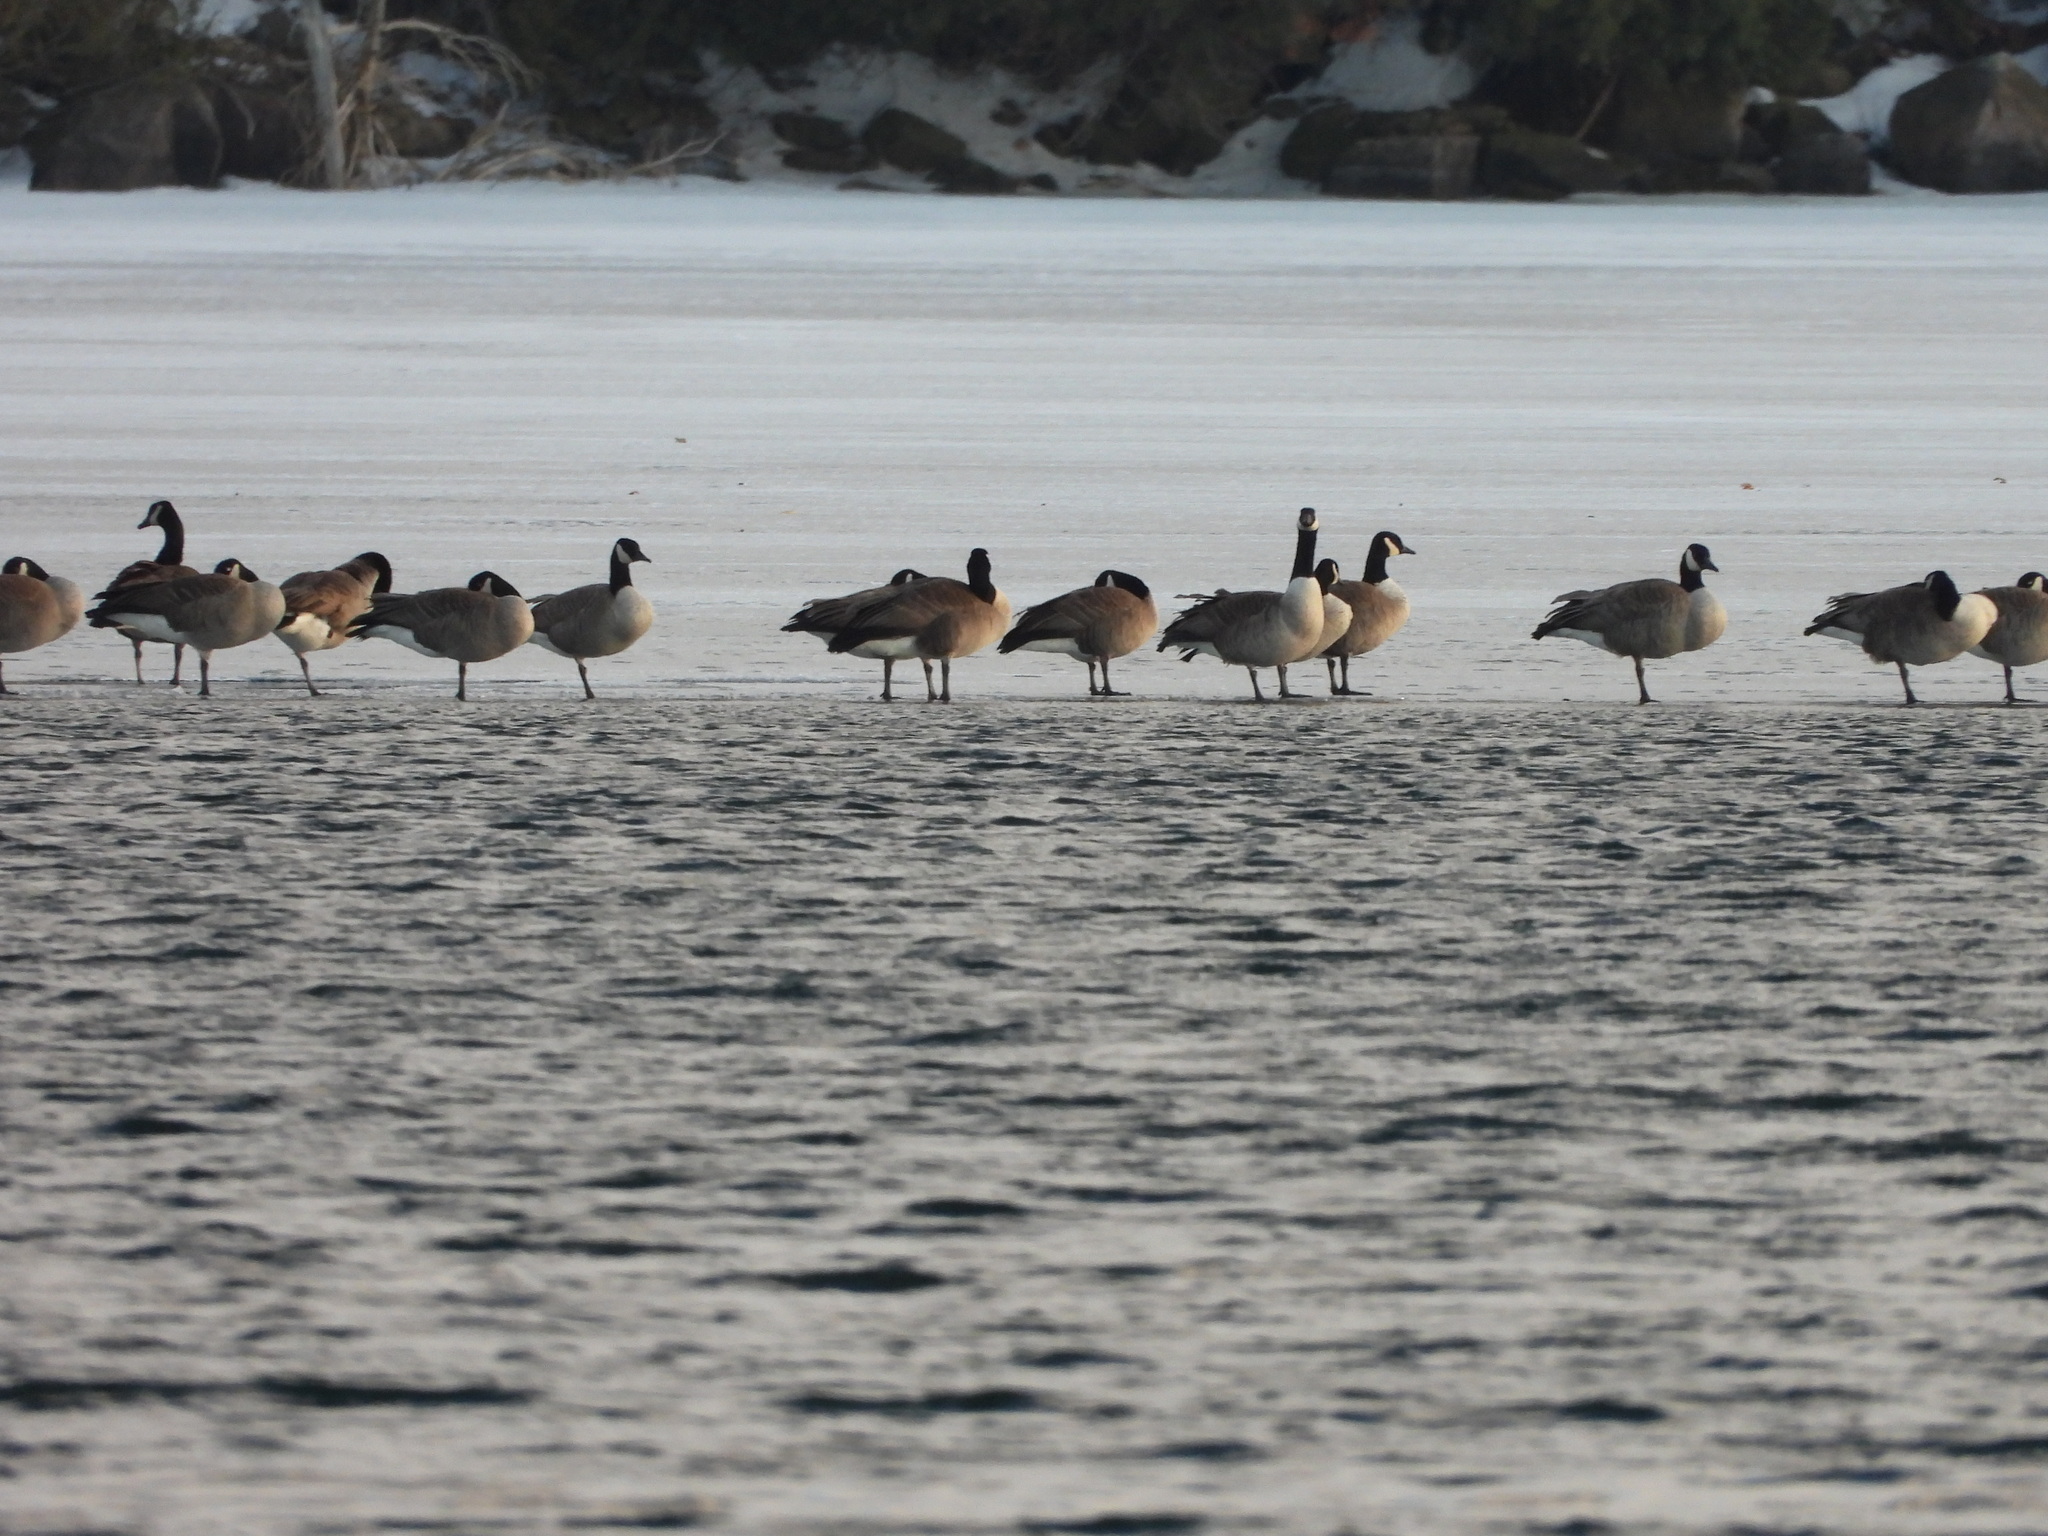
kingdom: Animalia
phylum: Chordata
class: Aves
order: Anseriformes
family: Anatidae
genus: Branta
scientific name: Branta canadensis
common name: Canada goose
